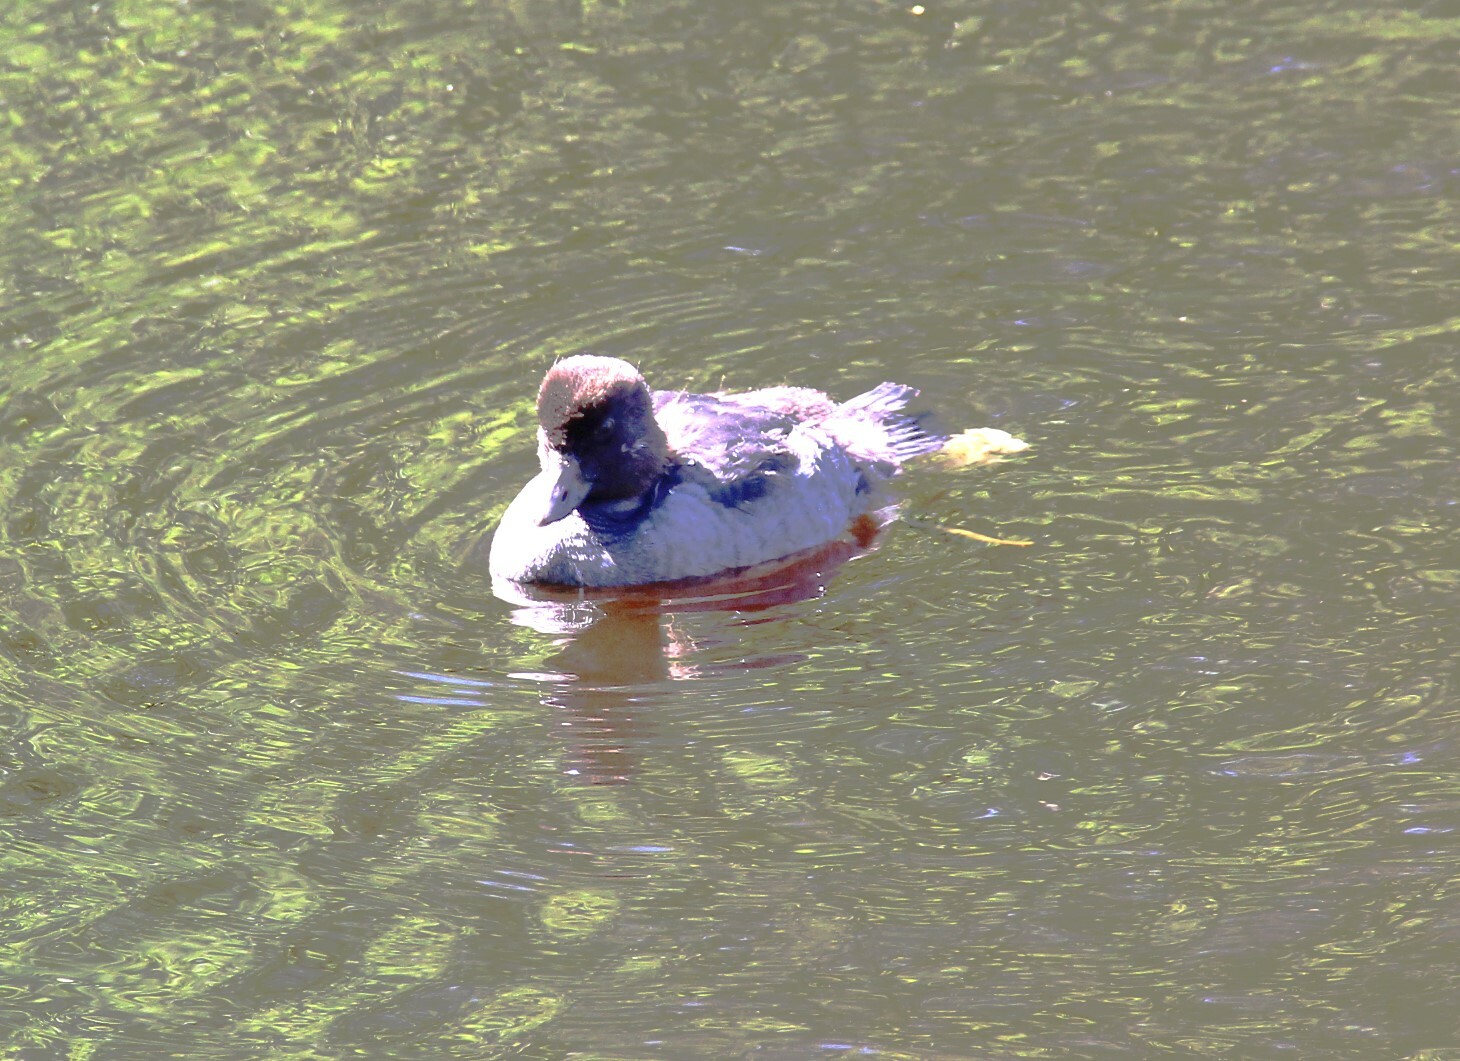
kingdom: Animalia
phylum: Chordata
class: Aves
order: Anseriformes
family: Anatidae
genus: Bucephala
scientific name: Bucephala clangula
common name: Common goldeneye
